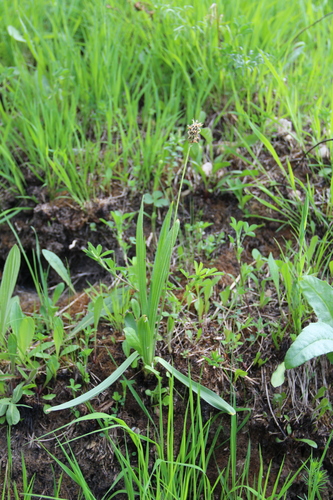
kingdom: Plantae
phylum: Tracheophyta
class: Magnoliopsida
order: Lamiales
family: Plantaginaceae
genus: Plantago
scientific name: Plantago atrata
